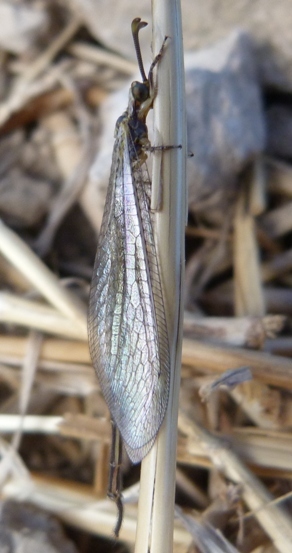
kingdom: Animalia
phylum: Arthropoda
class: Insecta
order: Neuroptera
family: Myrmeleontidae
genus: Macronemurus
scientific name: Macronemurus appendiculatus
